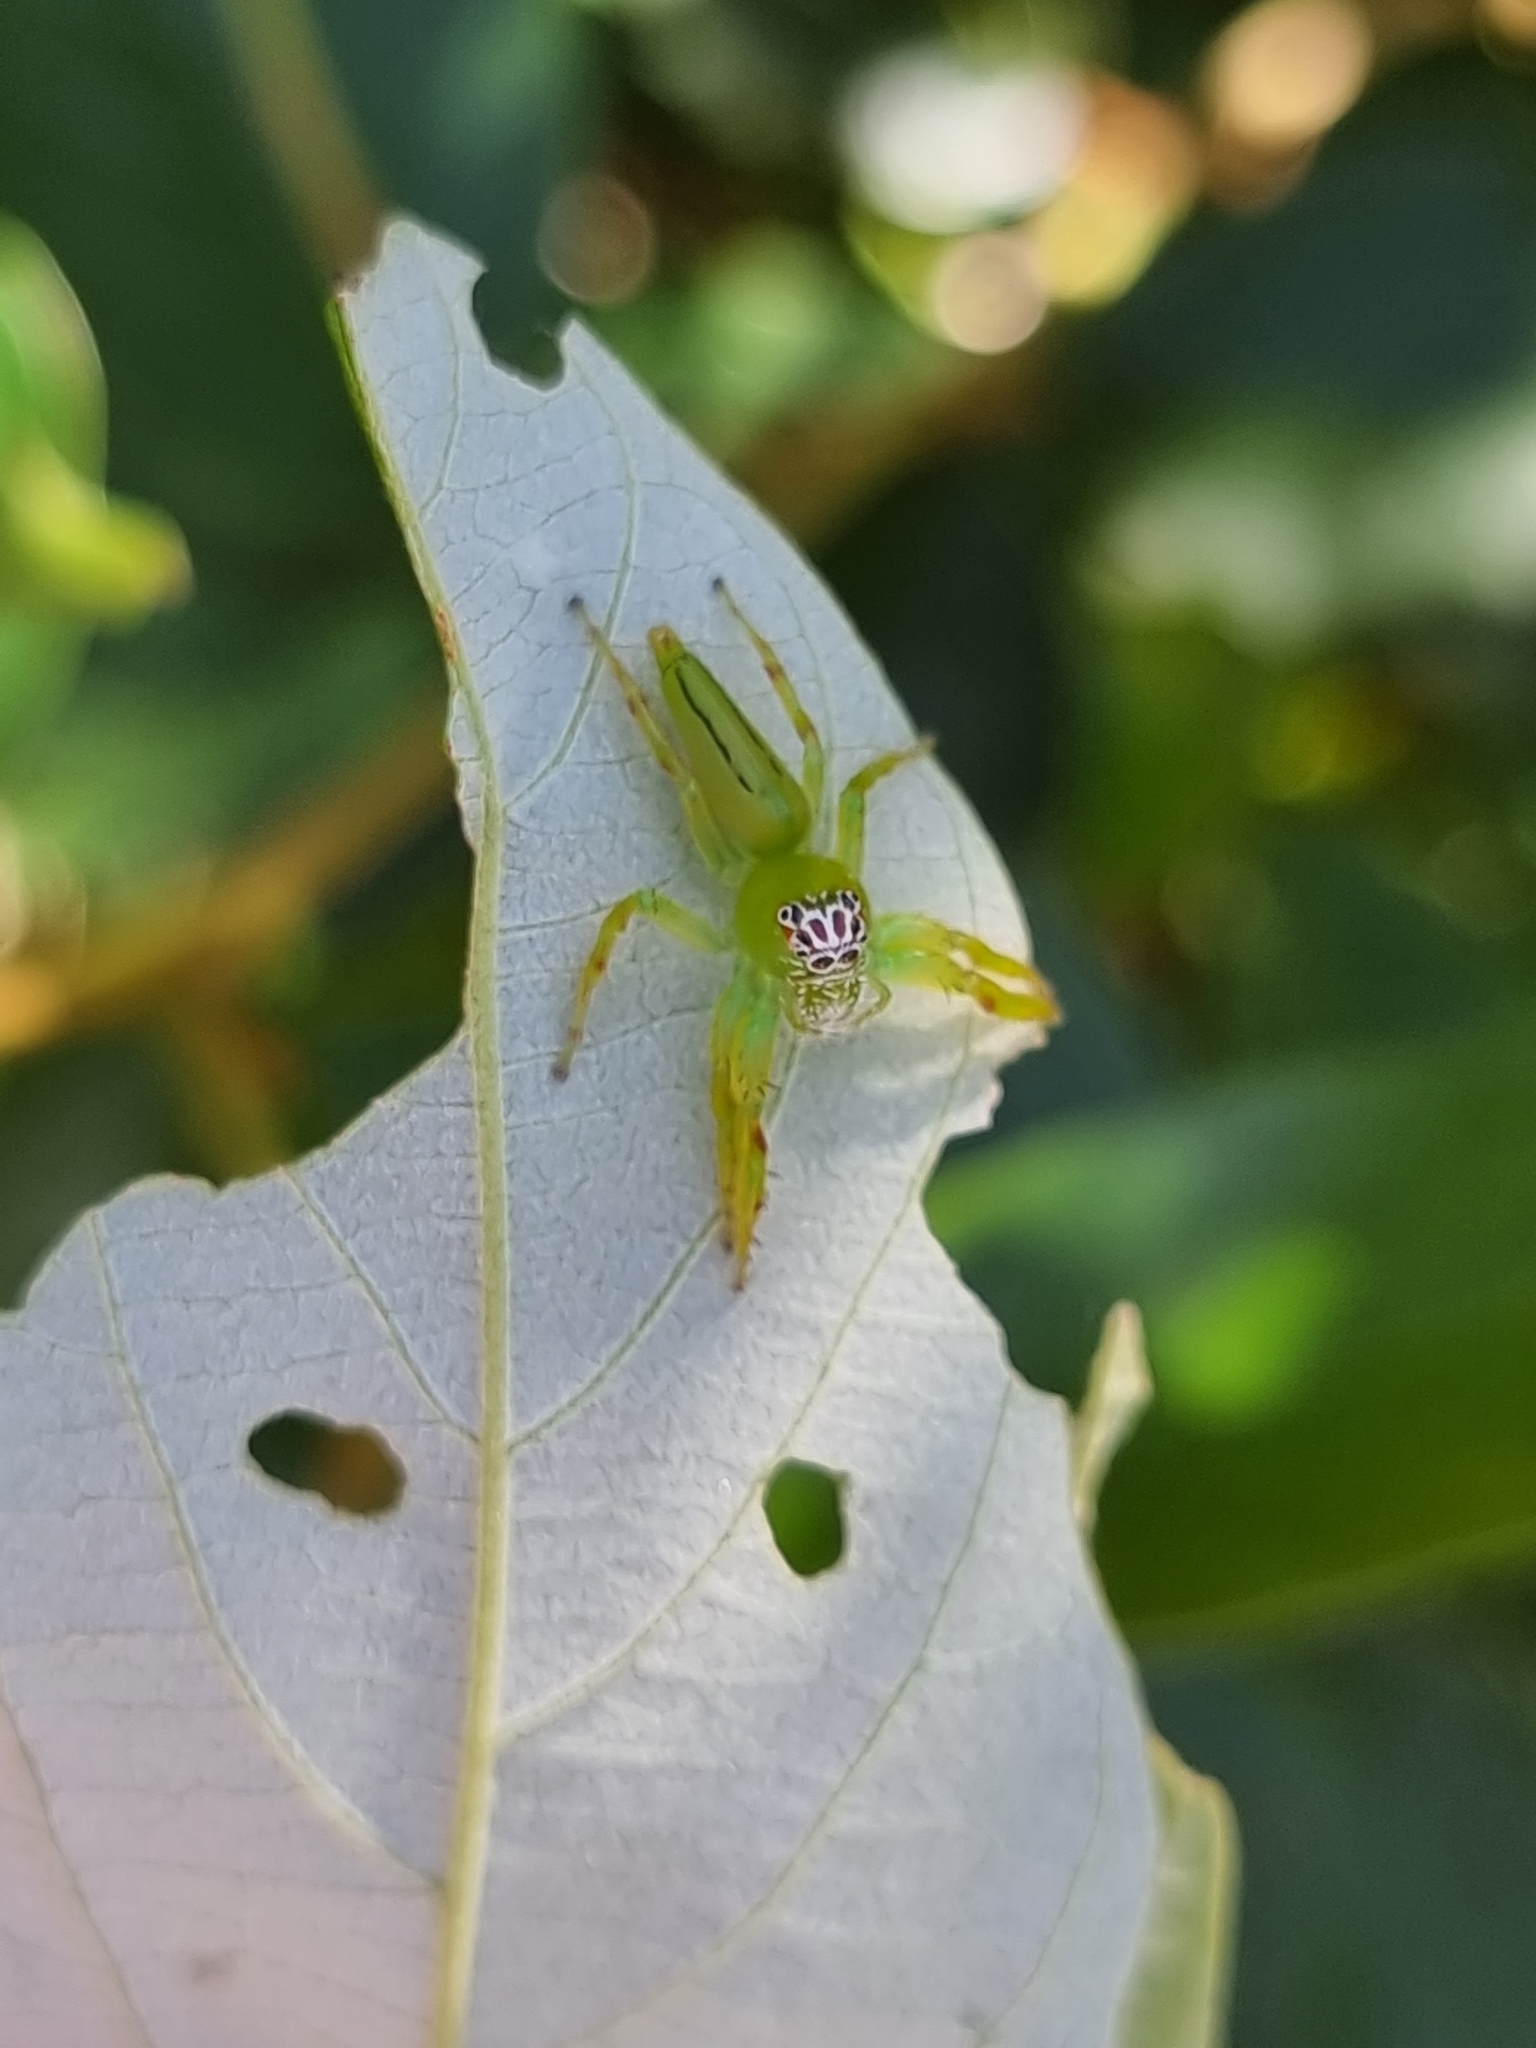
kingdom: Animalia
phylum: Arthropoda
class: Arachnida
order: Araneae
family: Salticidae
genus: Mopsus
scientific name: Mopsus mormon
